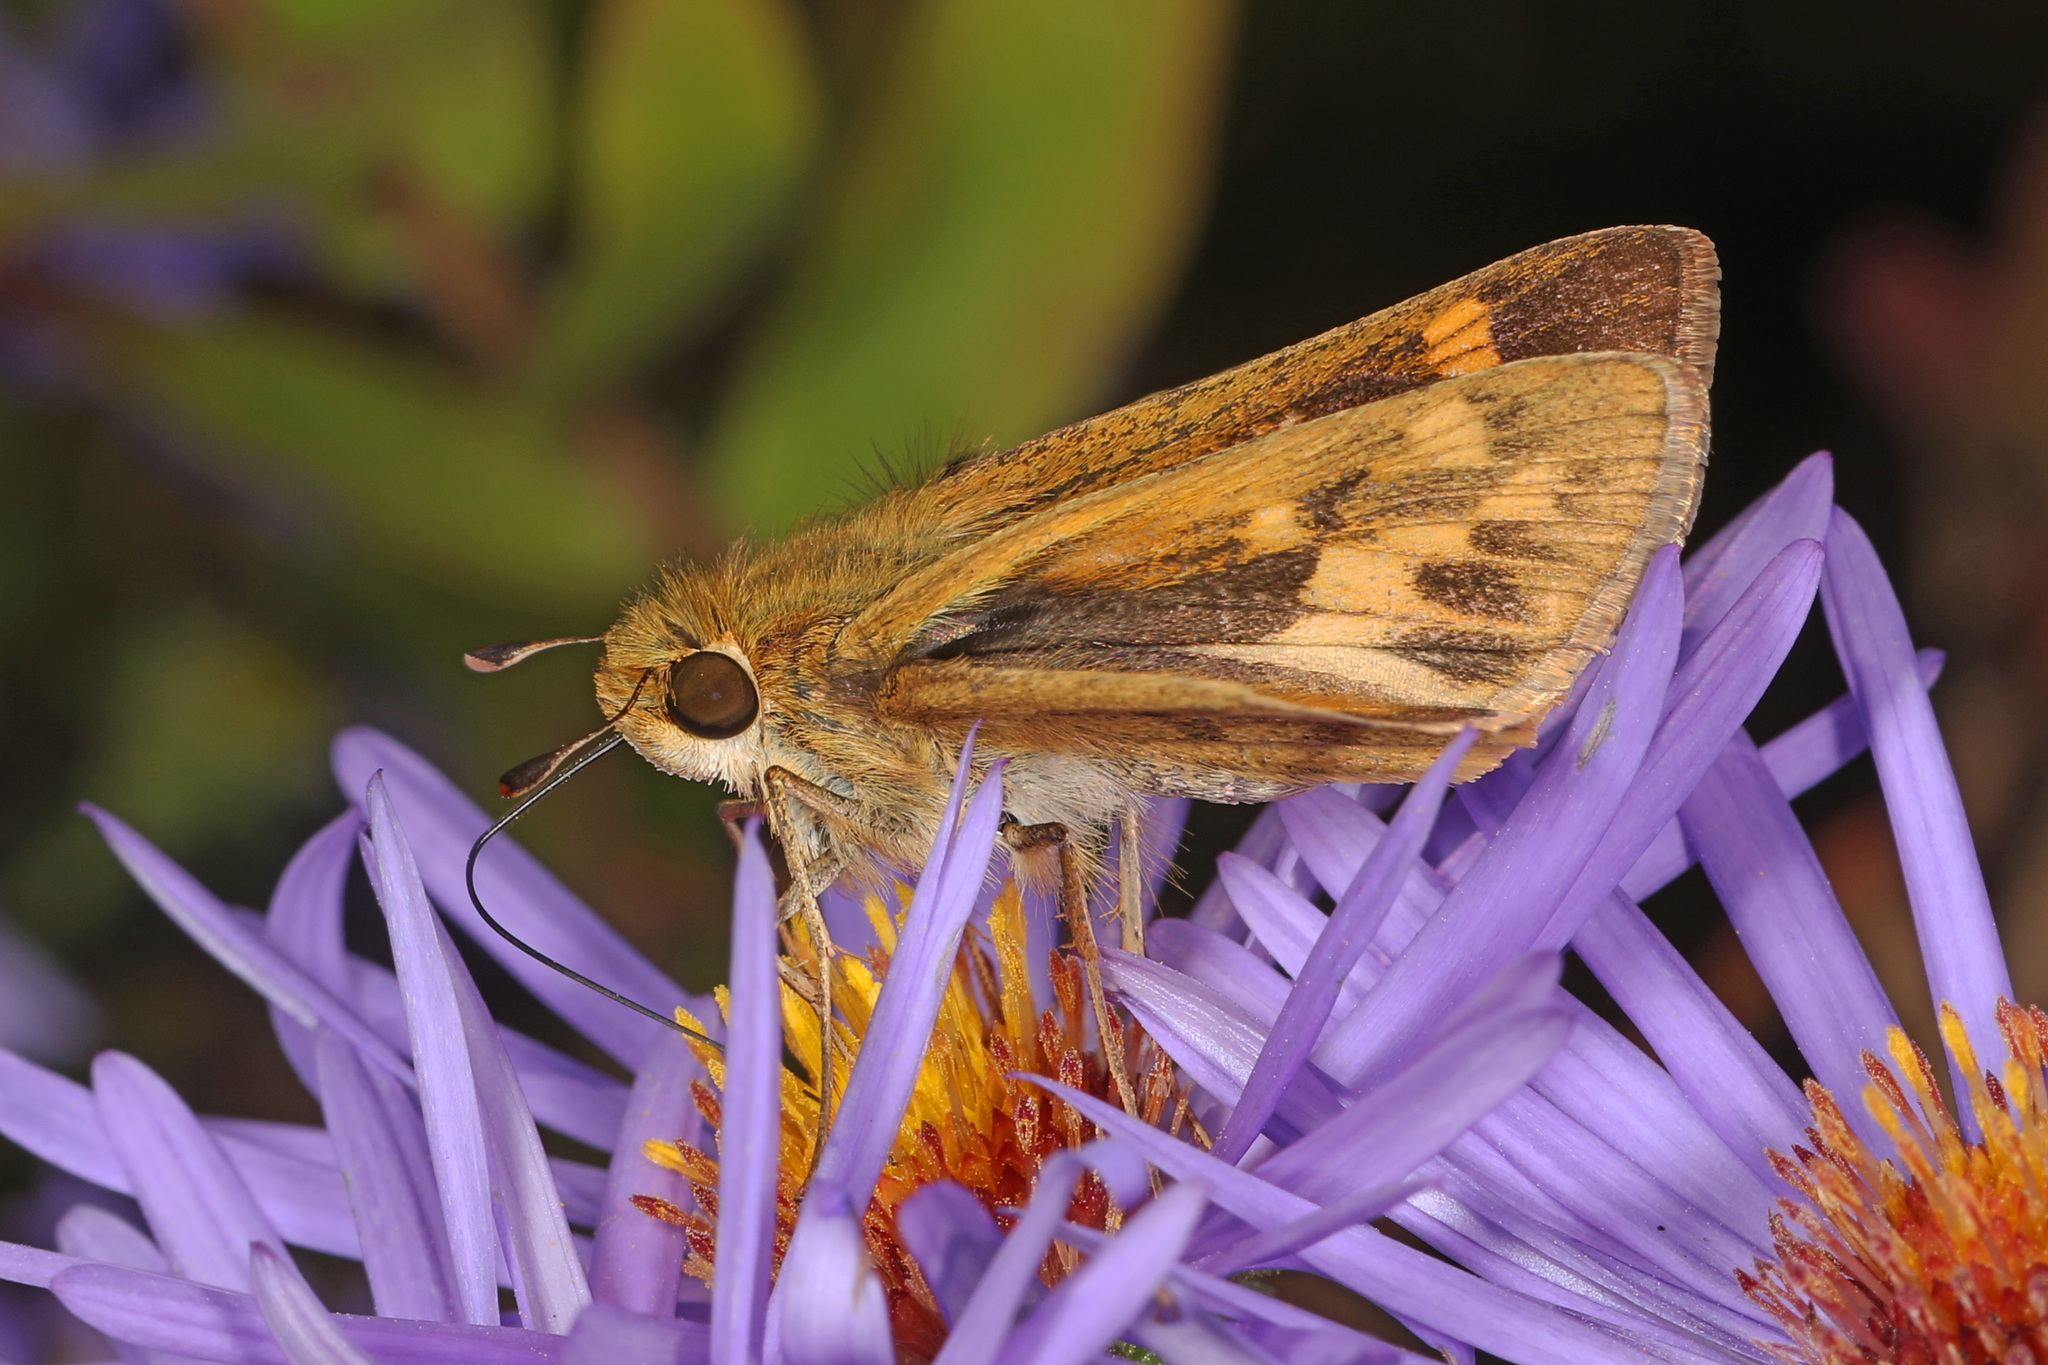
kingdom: Animalia
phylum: Arthropoda
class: Insecta
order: Lepidoptera
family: Hesperiidae
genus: Hylephila
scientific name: Hylephila phyleus
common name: Fiery skipper
